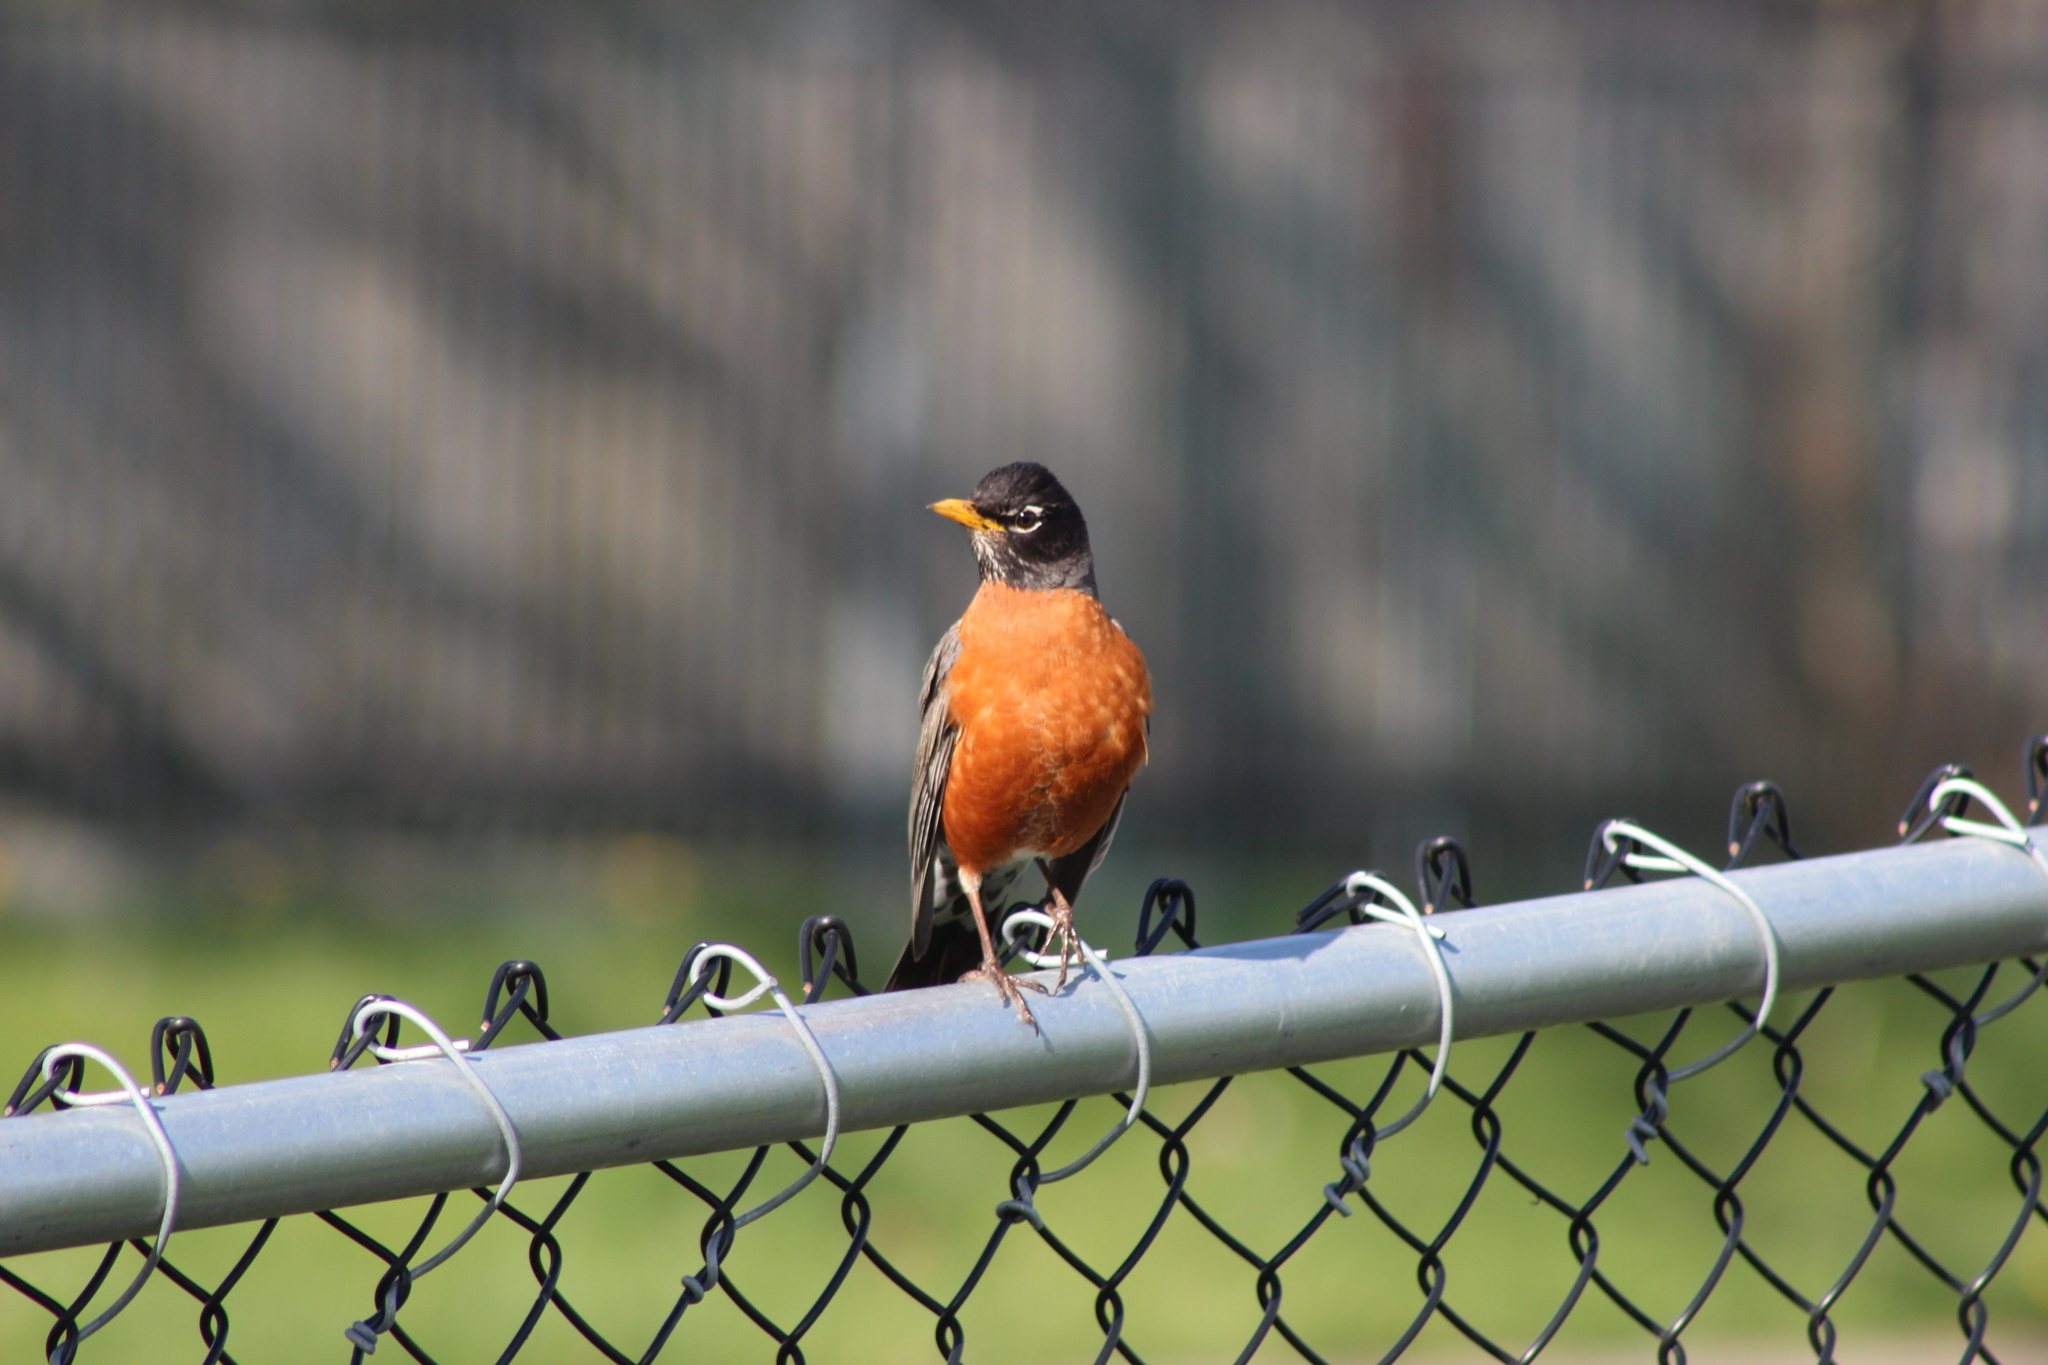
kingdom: Animalia
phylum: Chordata
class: Aves
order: Passeriformes
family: Turdidae
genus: Turdus
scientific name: Turdus migratorius
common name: American robin
